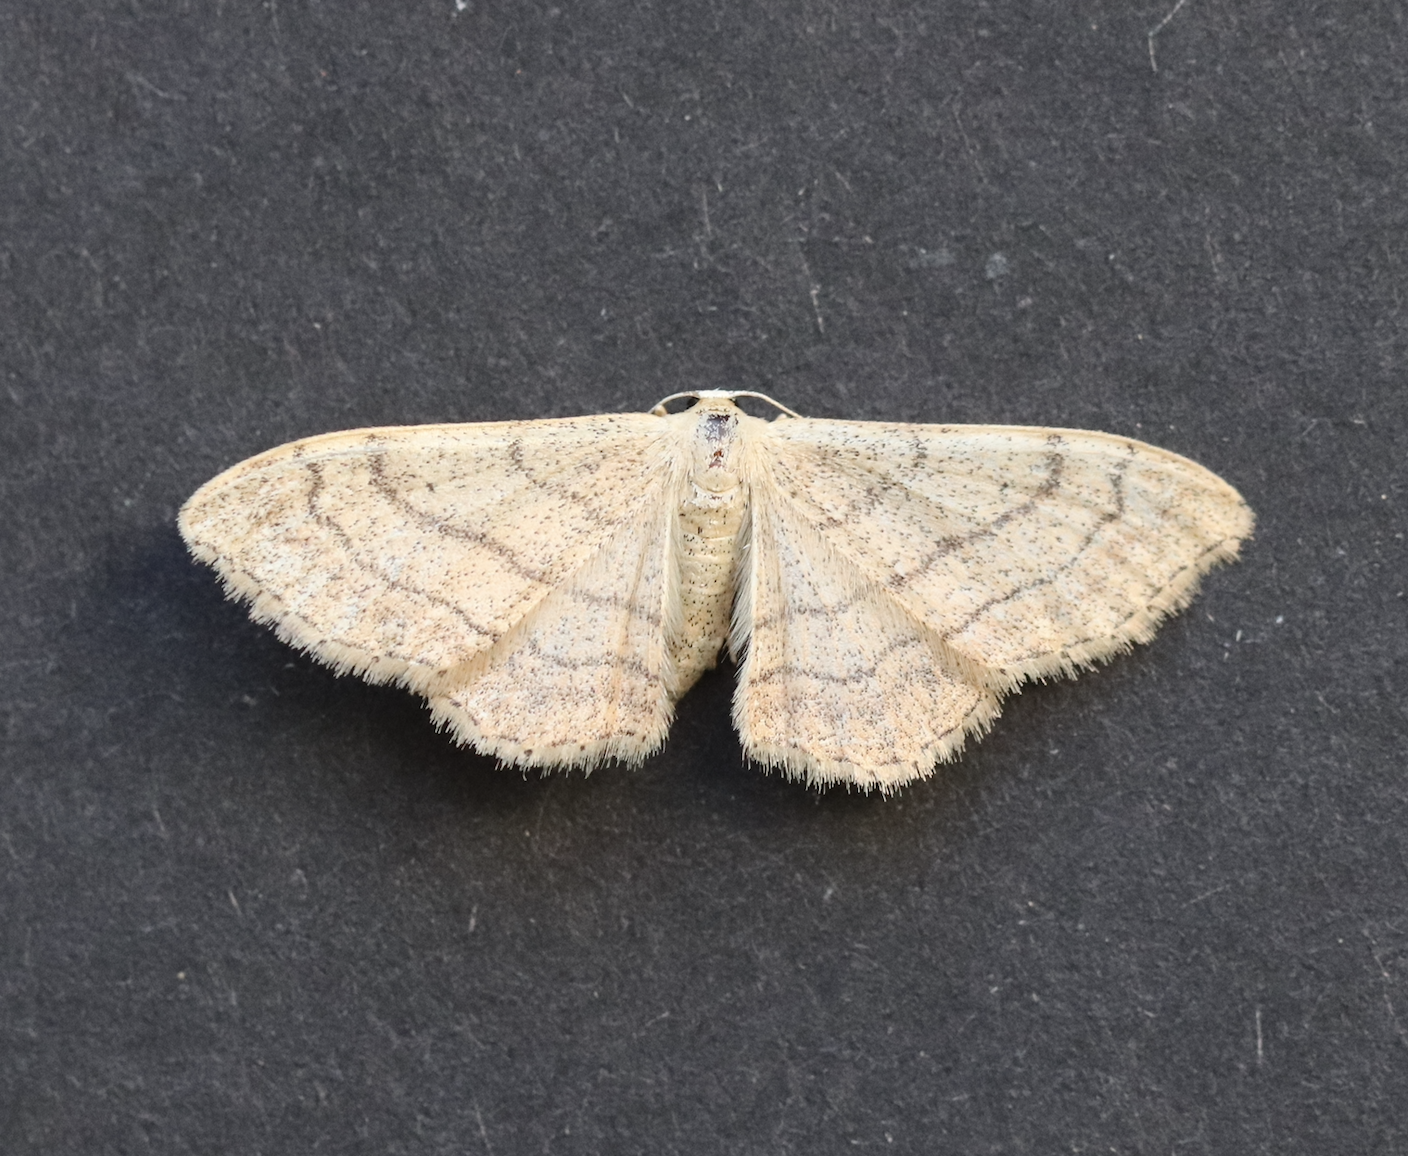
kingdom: Animalia
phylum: Arthropoda
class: Insecta
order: Lepidoptera
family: Geometridae
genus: Idaea
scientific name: Idaea aversata
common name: Riband wave
